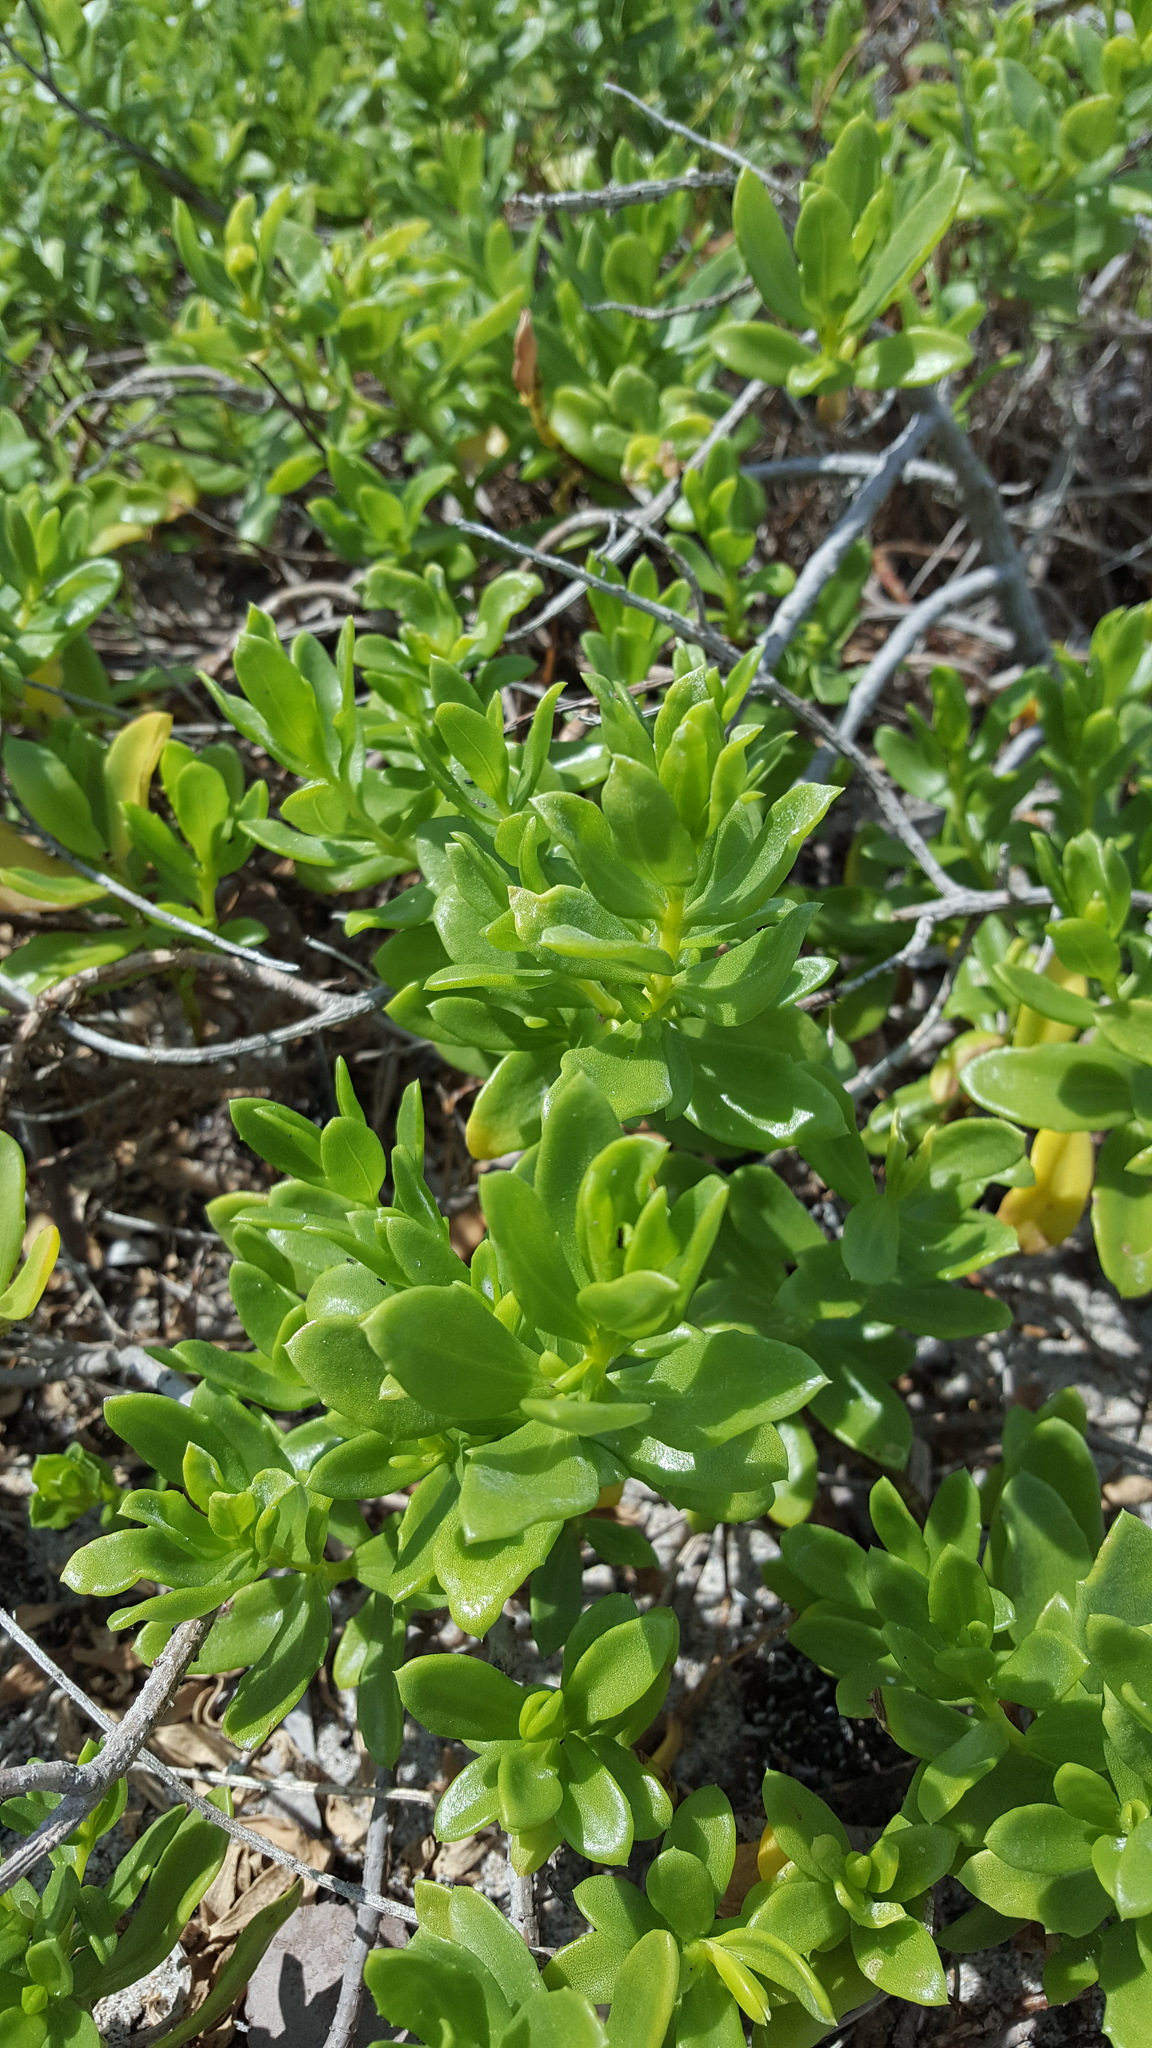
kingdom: Plantae
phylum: Tracheophyta
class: Magnoliopsida
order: Asterales
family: Asteraceae
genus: Iva
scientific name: Iva imbricata
